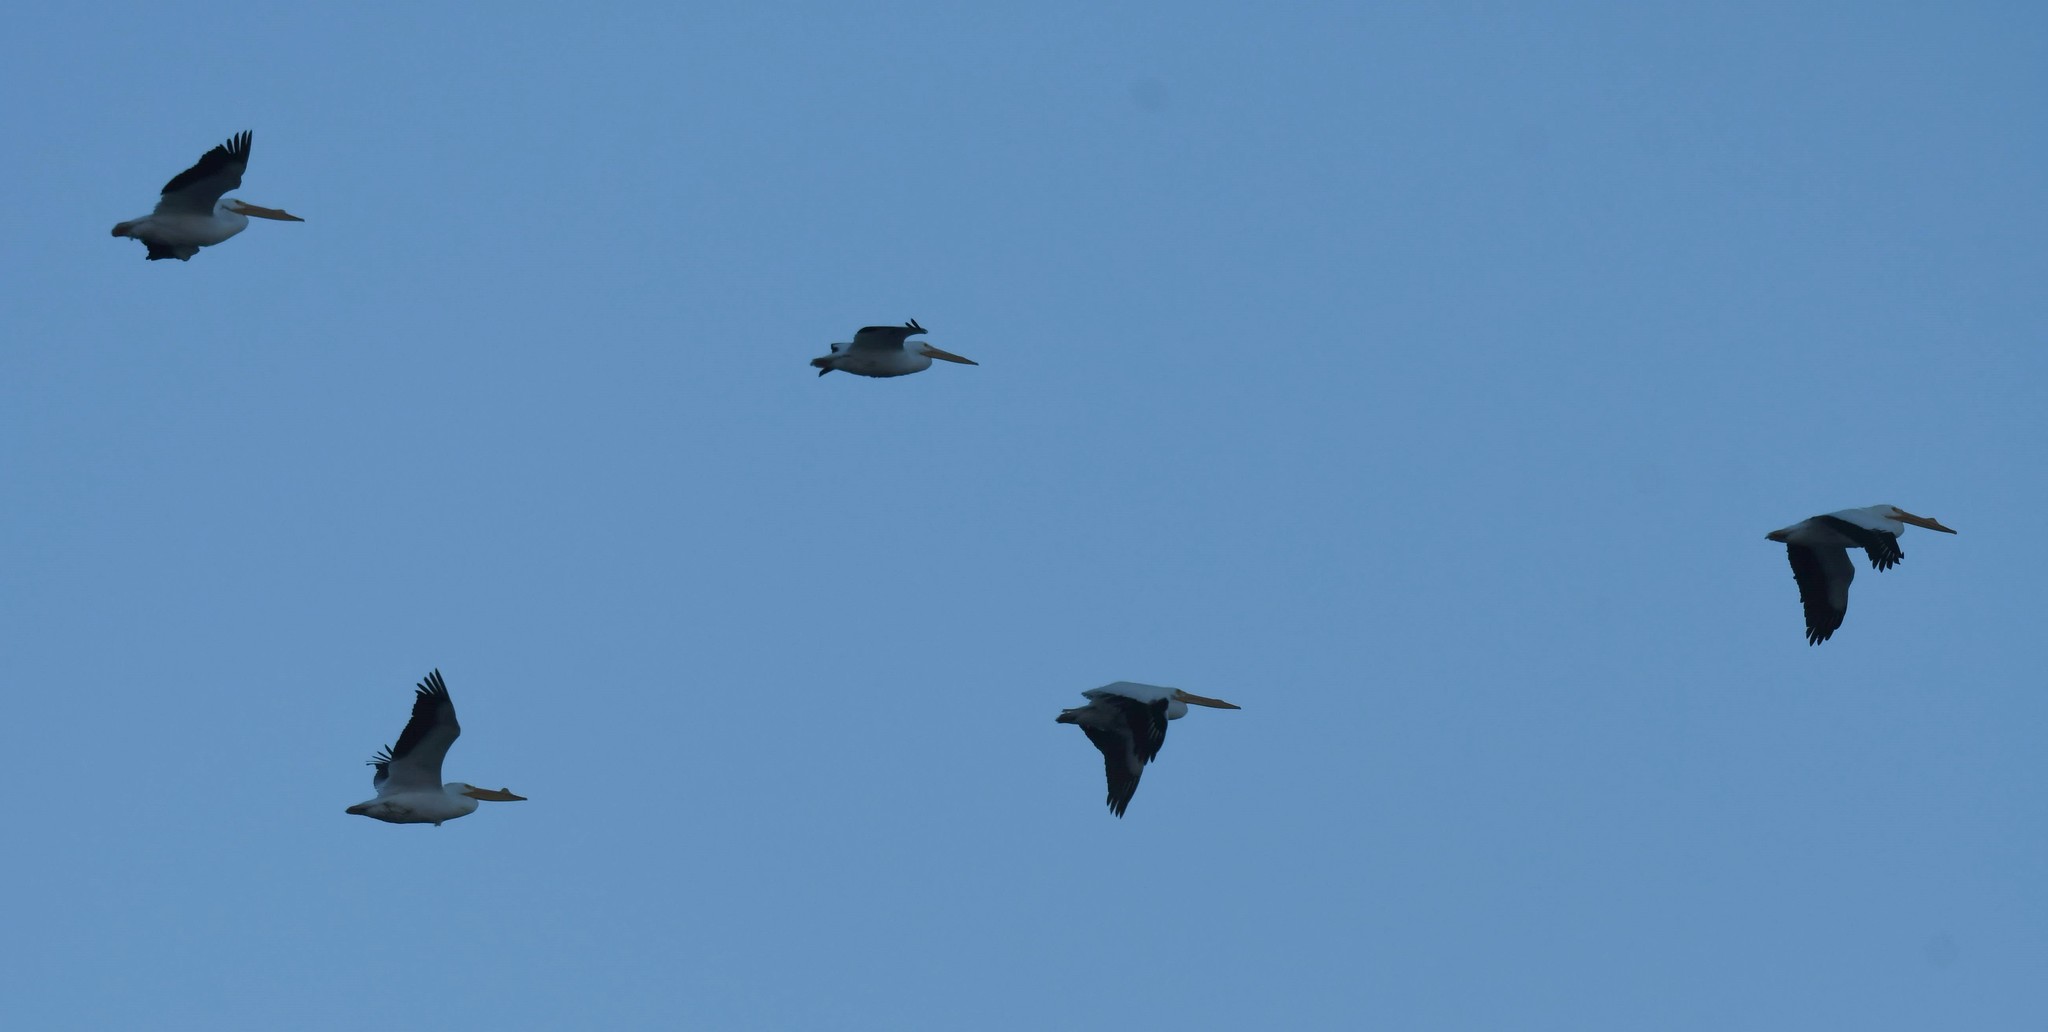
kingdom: Animalia
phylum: Chordata
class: Aves
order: Pelecaniformes
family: Pelecanidae
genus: Pelecanus
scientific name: Pelecanus erythrorhynchos
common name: American white pelican
